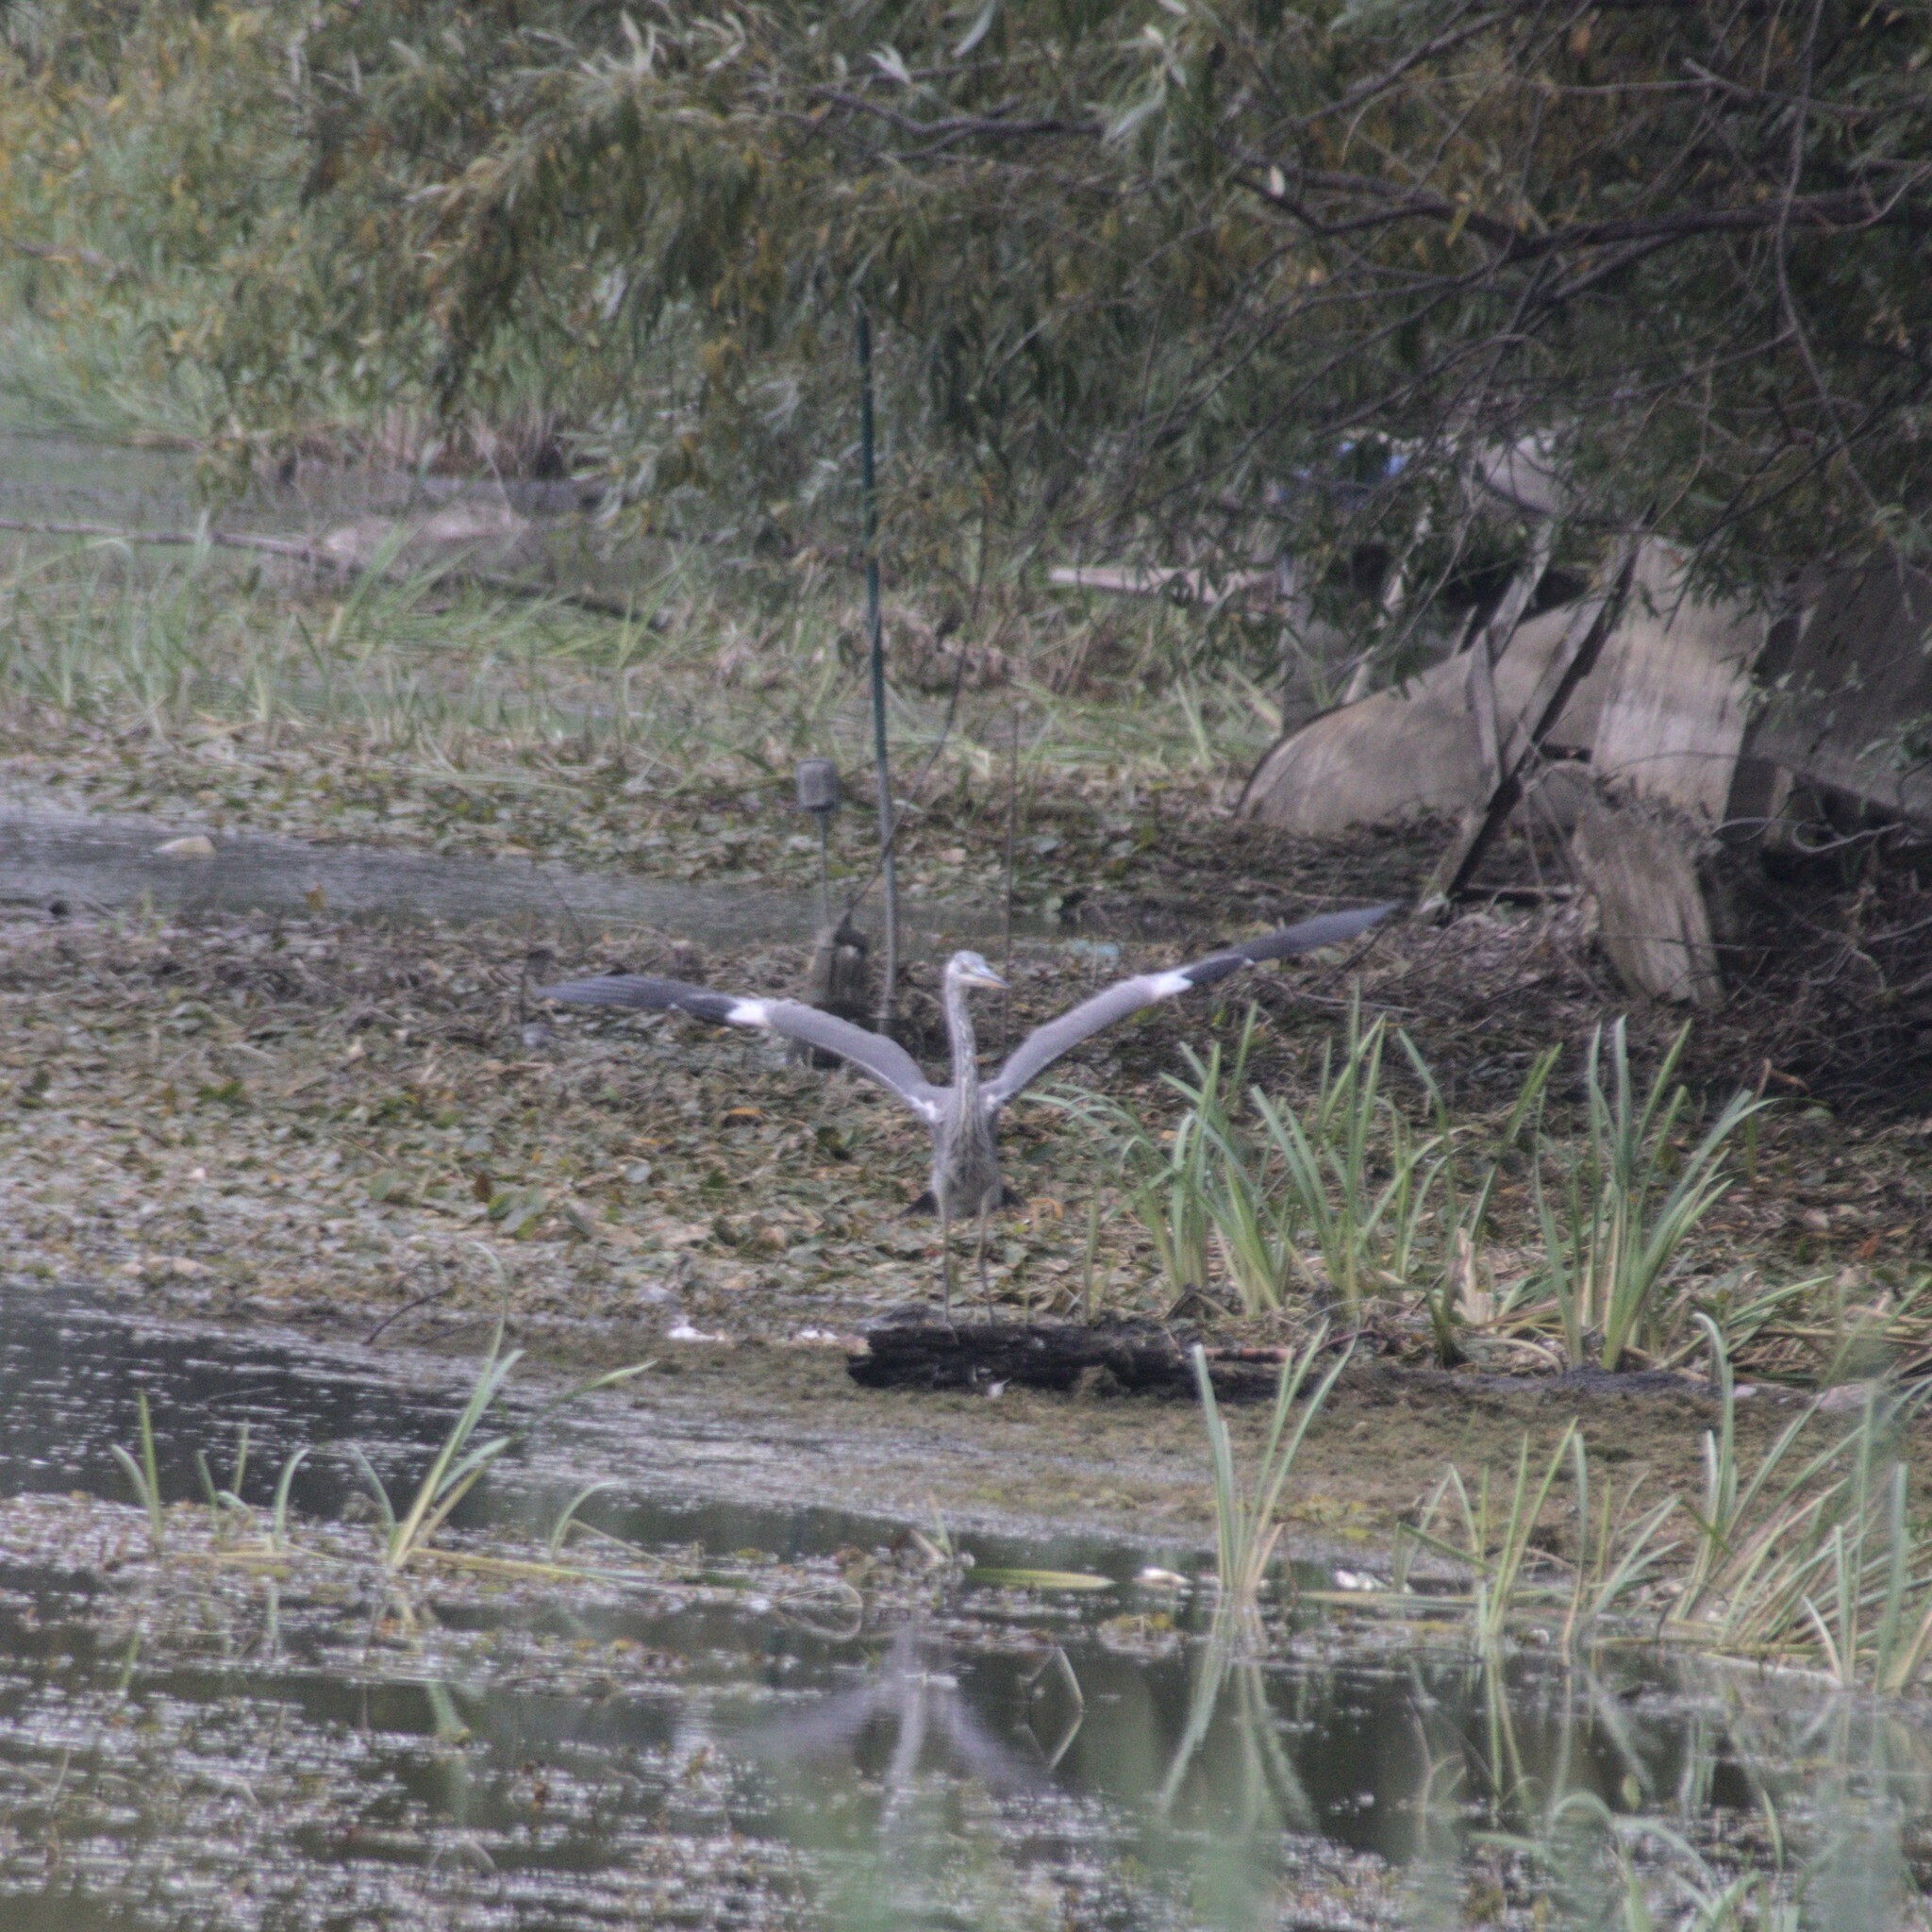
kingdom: Animalia
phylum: Chordata
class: Aves
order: Pelecaniformes
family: Ardeidae
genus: Ardea
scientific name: Ardea cinerea
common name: Grey heron
